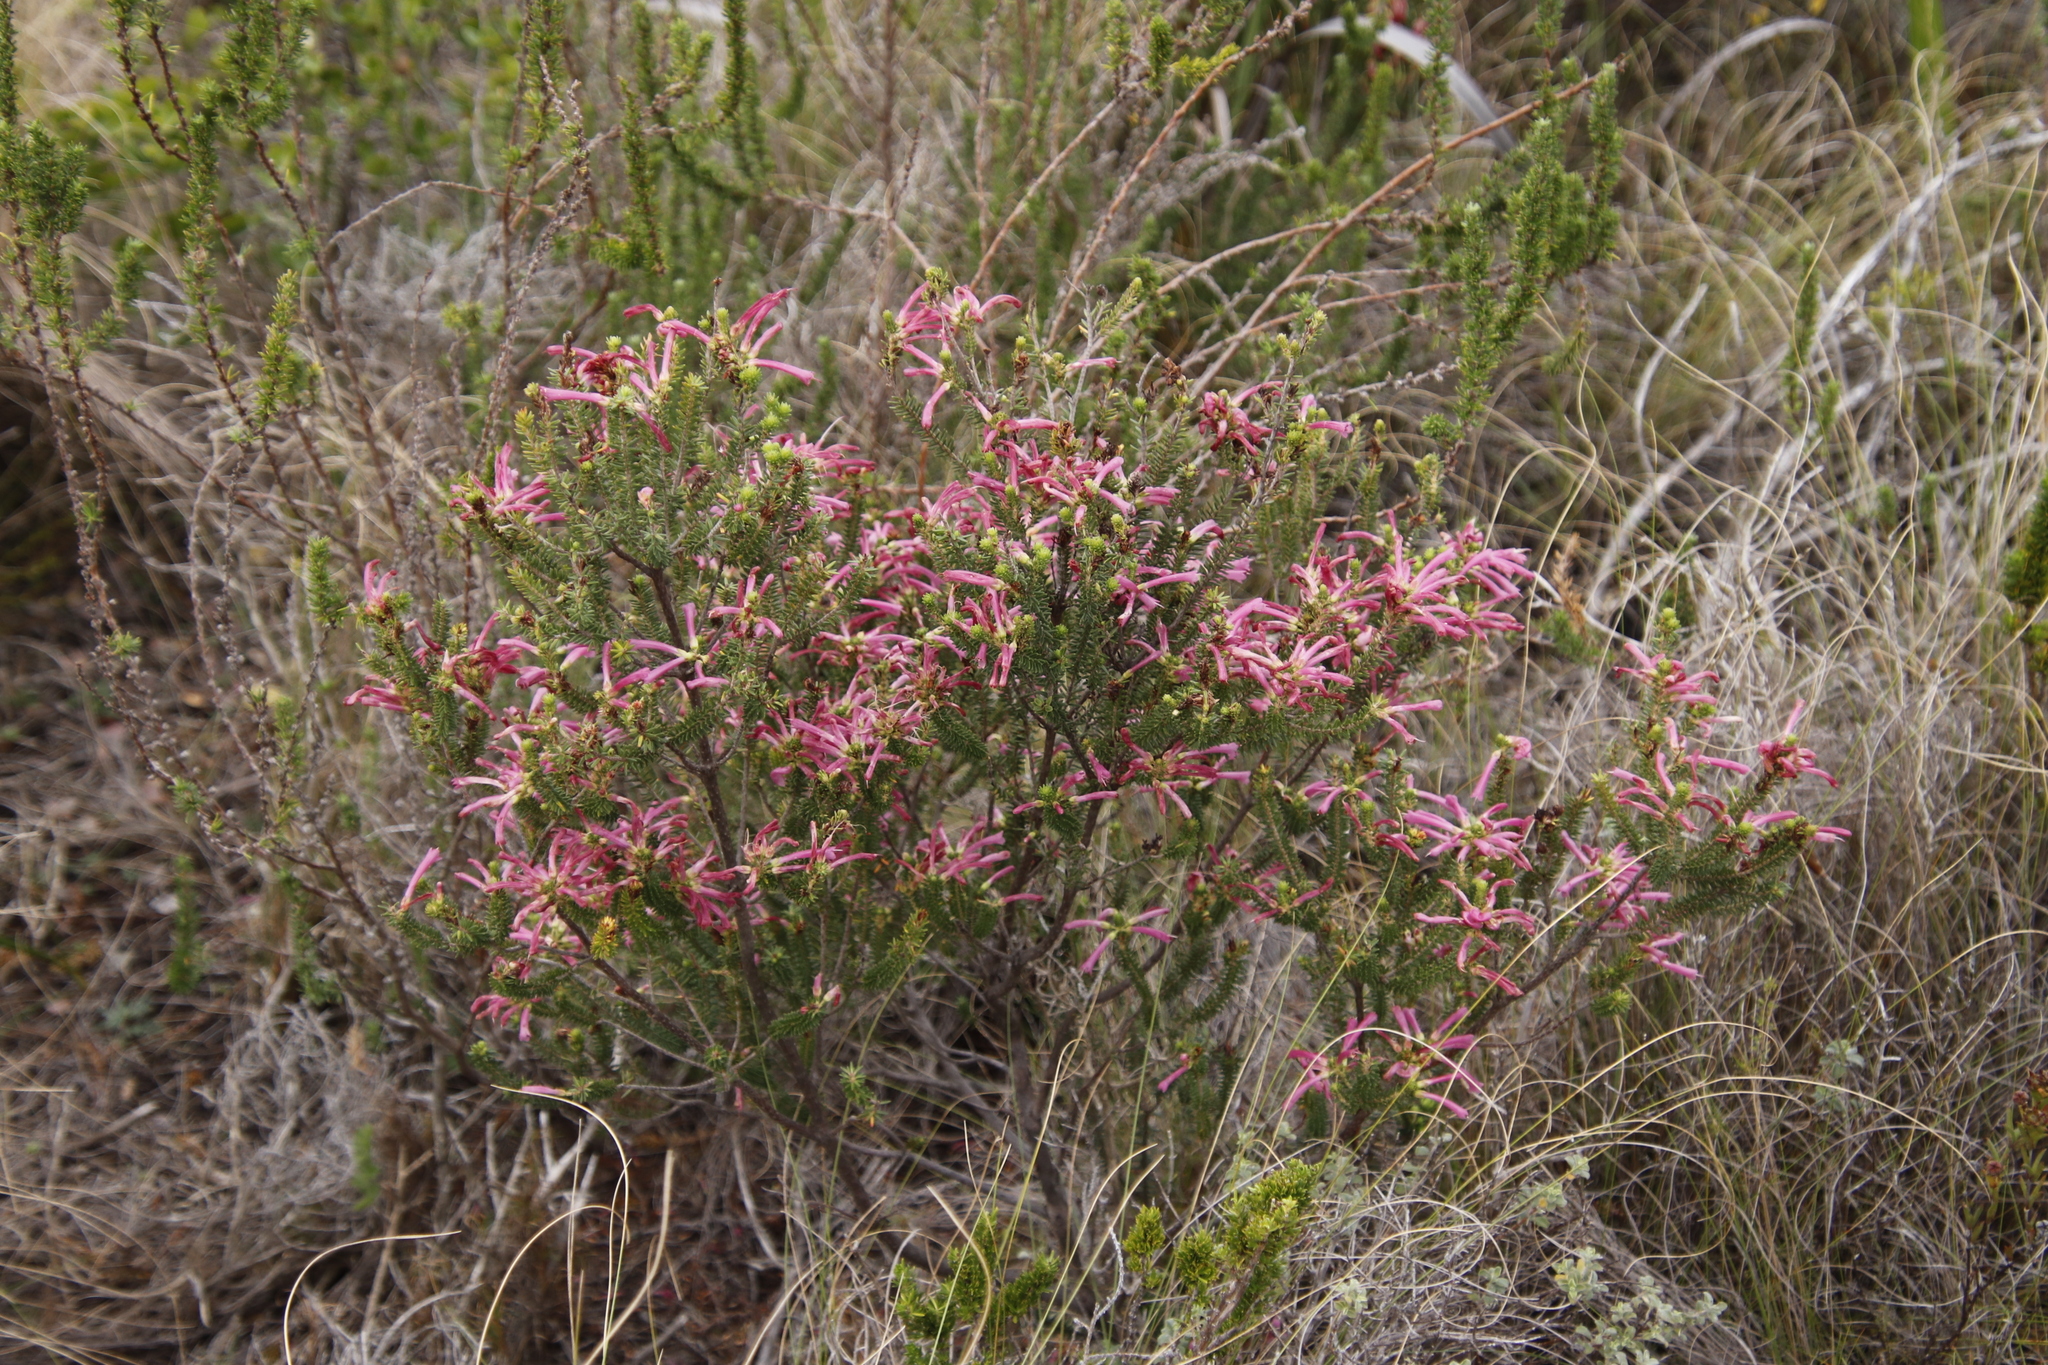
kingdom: Plantae
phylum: Tracheophyta
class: Magnoliopsida
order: Ericales
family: Ericaceae
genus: Erica
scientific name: Erica abietina
